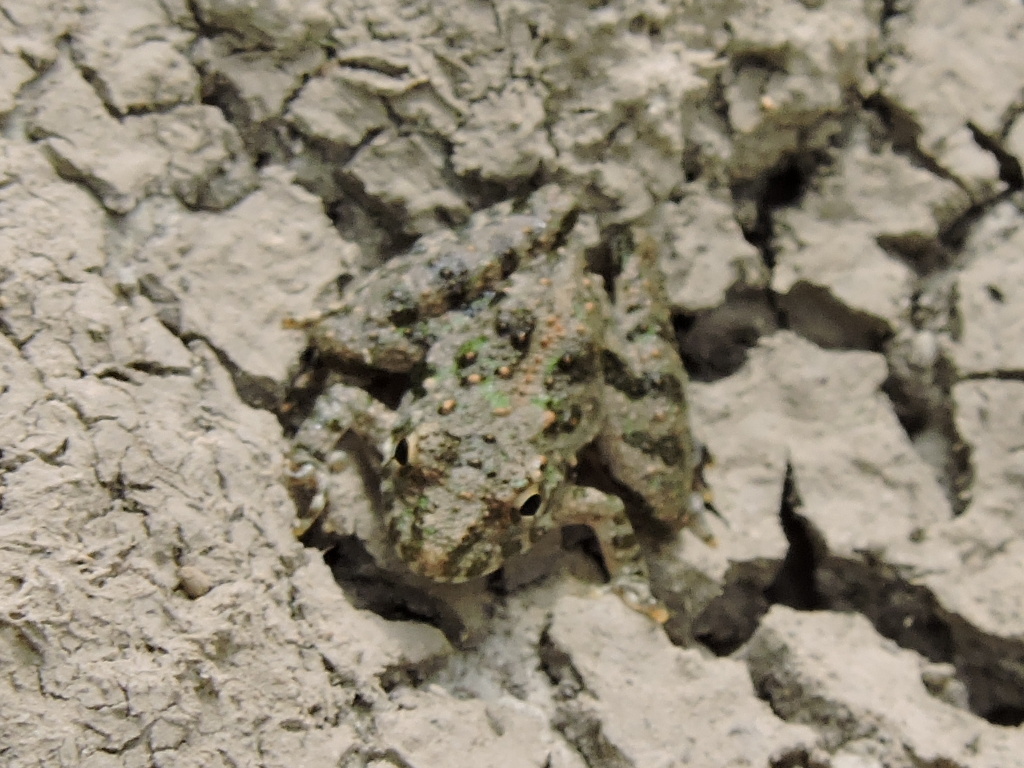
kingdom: Animalia
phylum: Chordata
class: Amphibia
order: Anura
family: Hylidae
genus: Acris
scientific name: Acris blanchardi
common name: Blanchard's cricket frog
